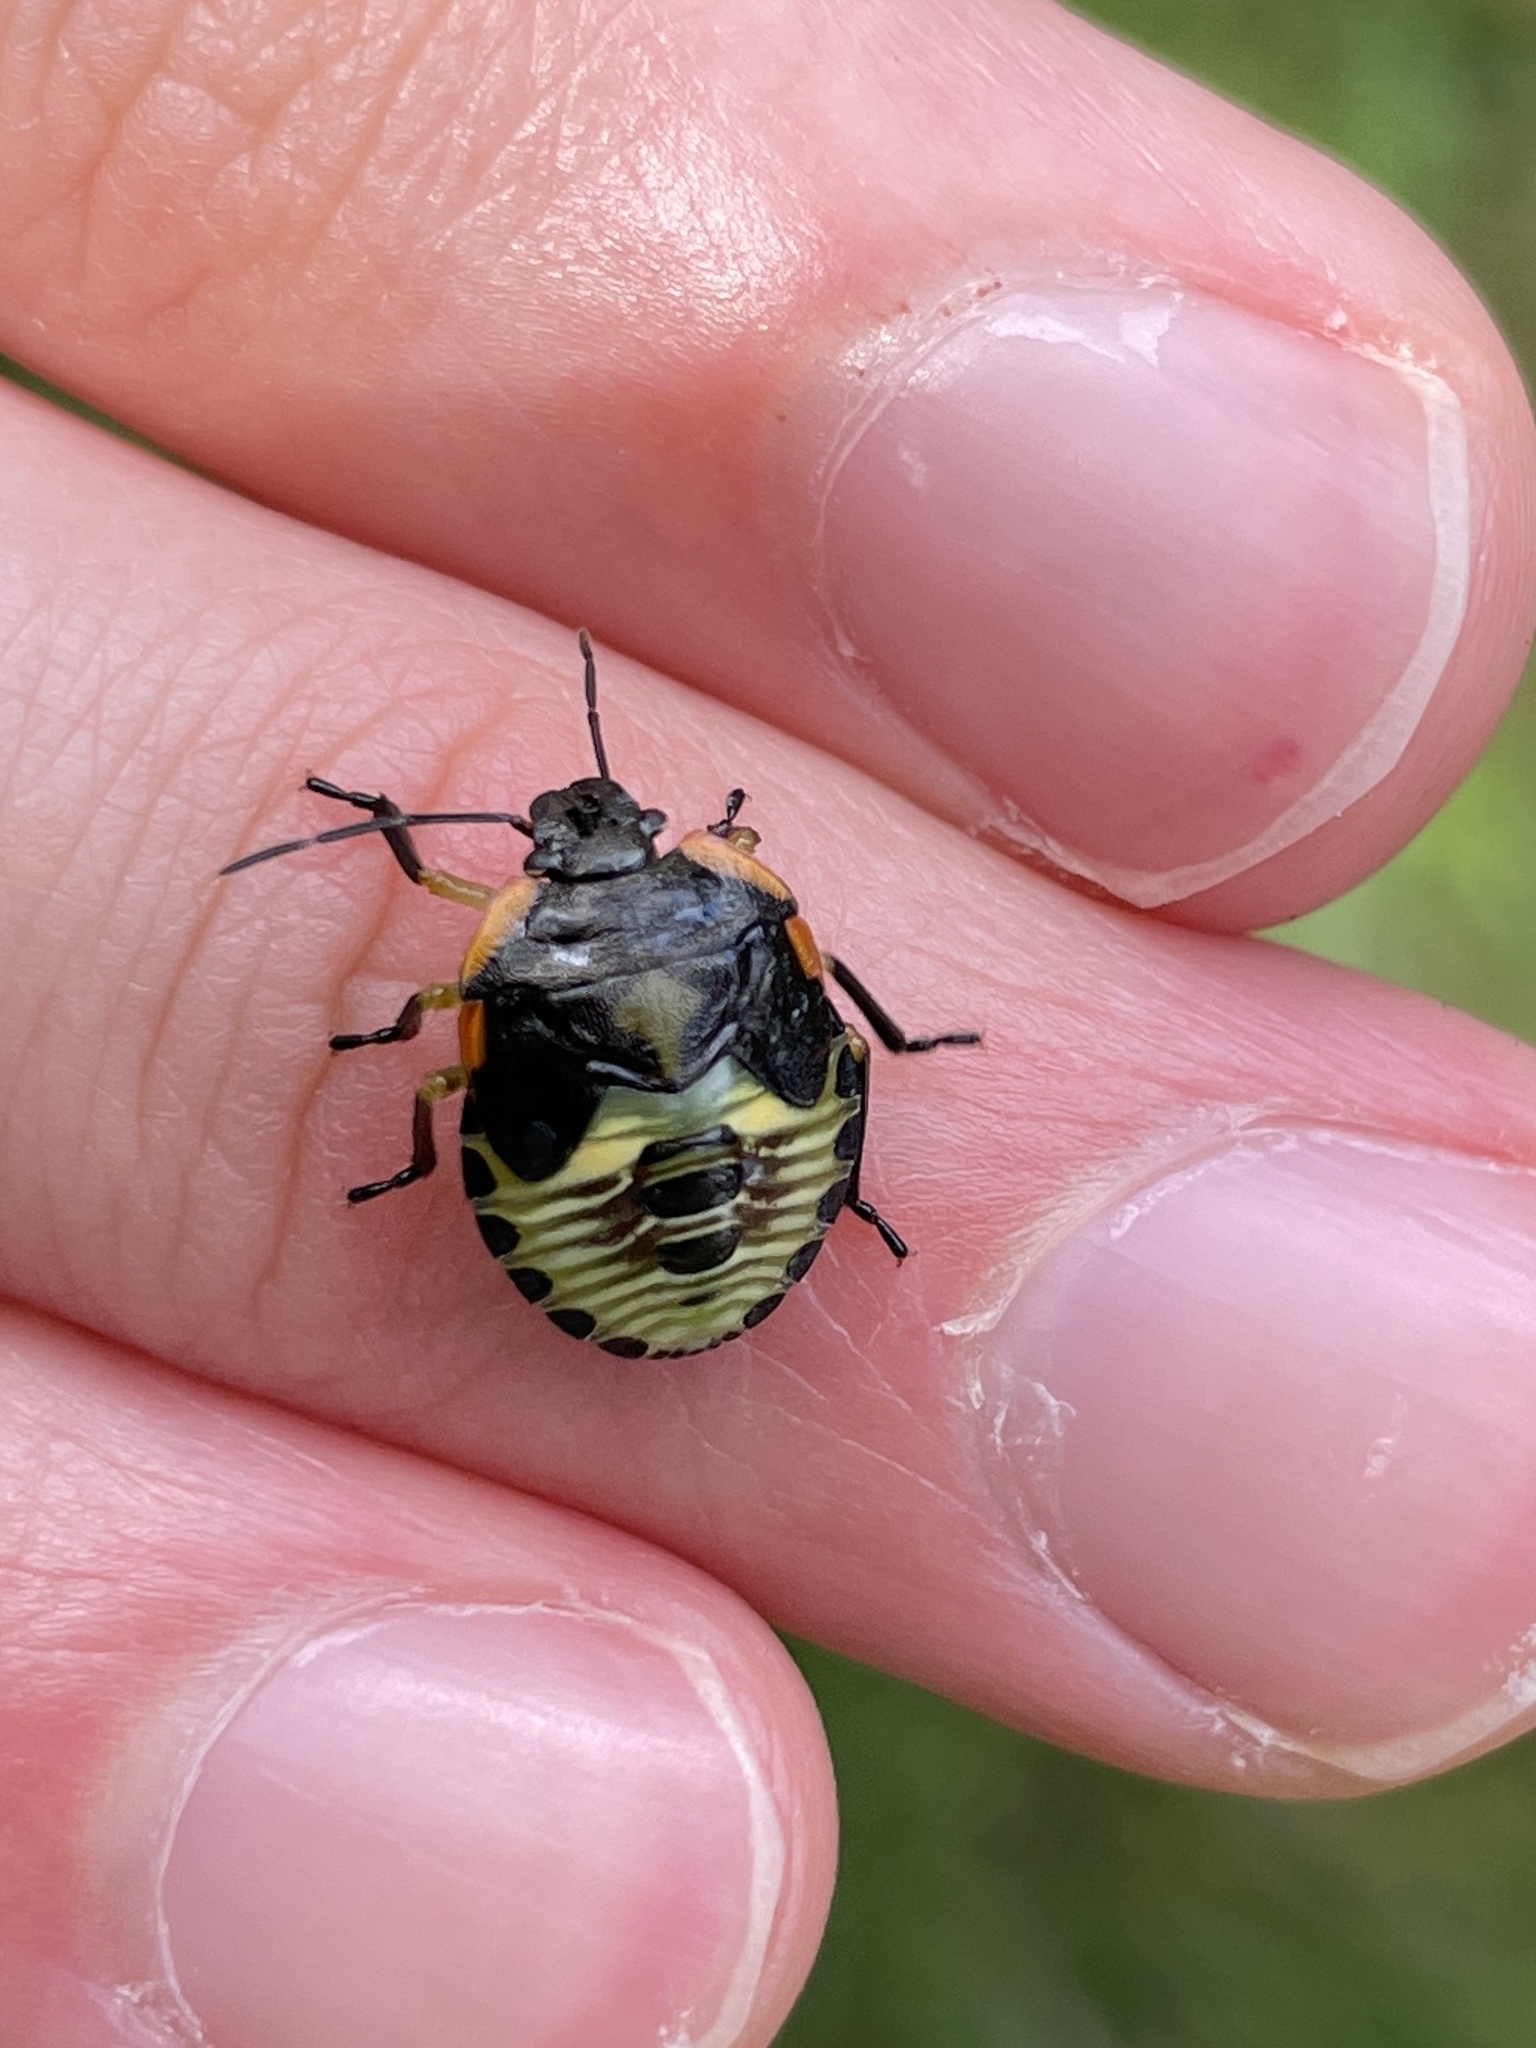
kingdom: Animalia
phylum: Arthropoda
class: Insecta
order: Hemiptera
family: Pentatomidae
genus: Chinavia
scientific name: Chinavia hilaris
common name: Green stink bug
